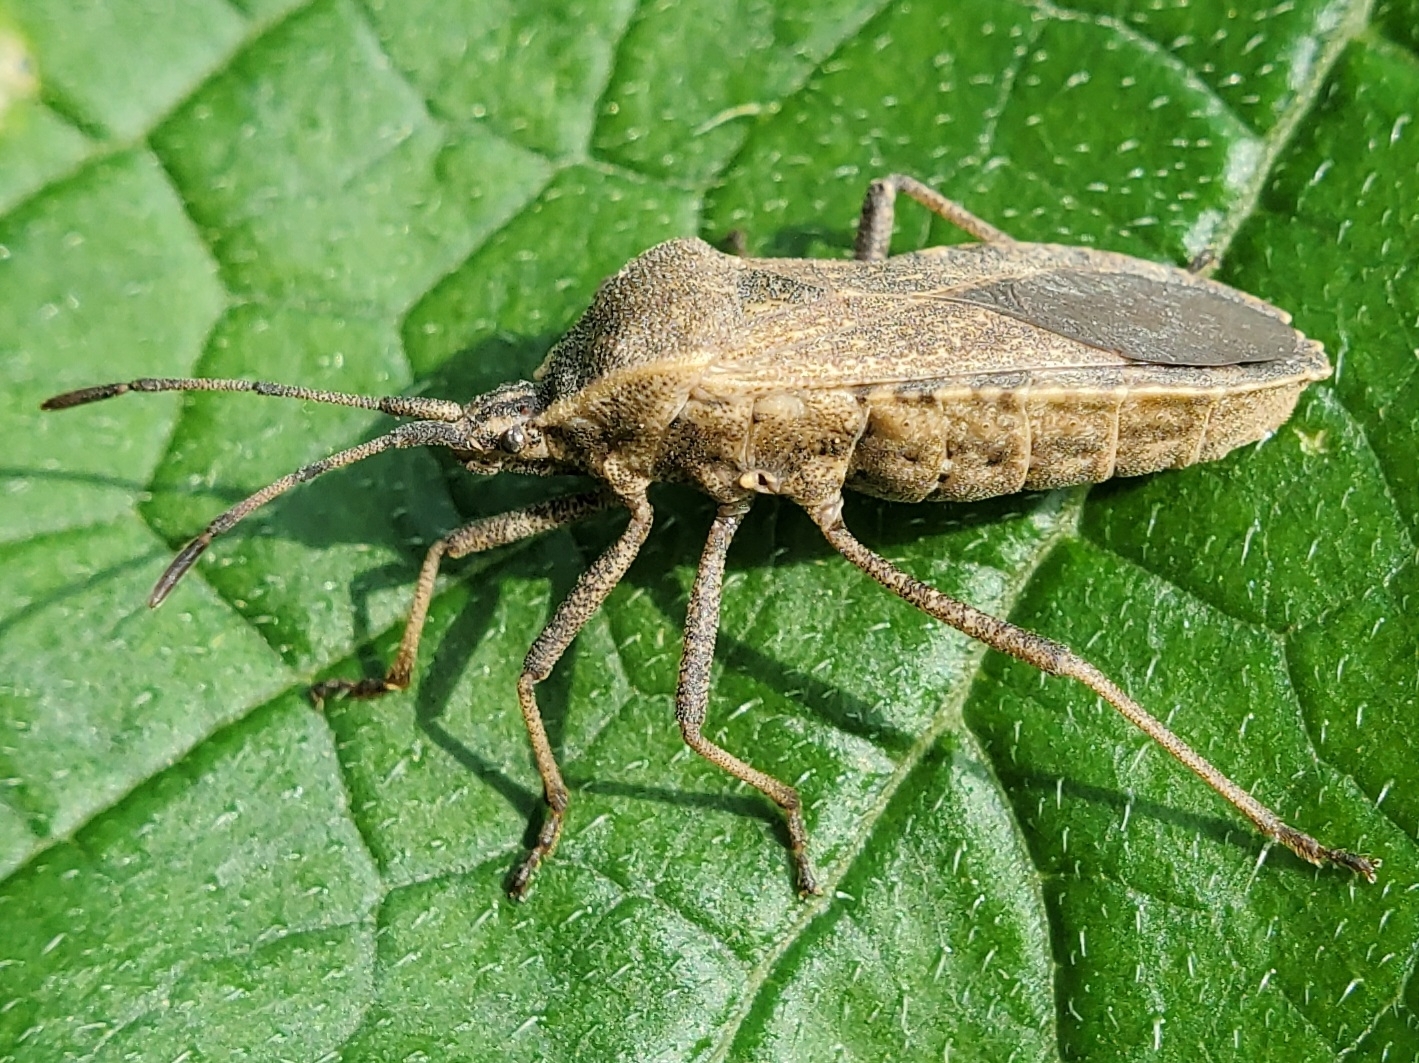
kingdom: Animalia
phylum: Arthropoda
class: Insecta
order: Hemiptera
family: Coreidae
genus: Anasa
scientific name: Anasa tristis
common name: Squash bug
